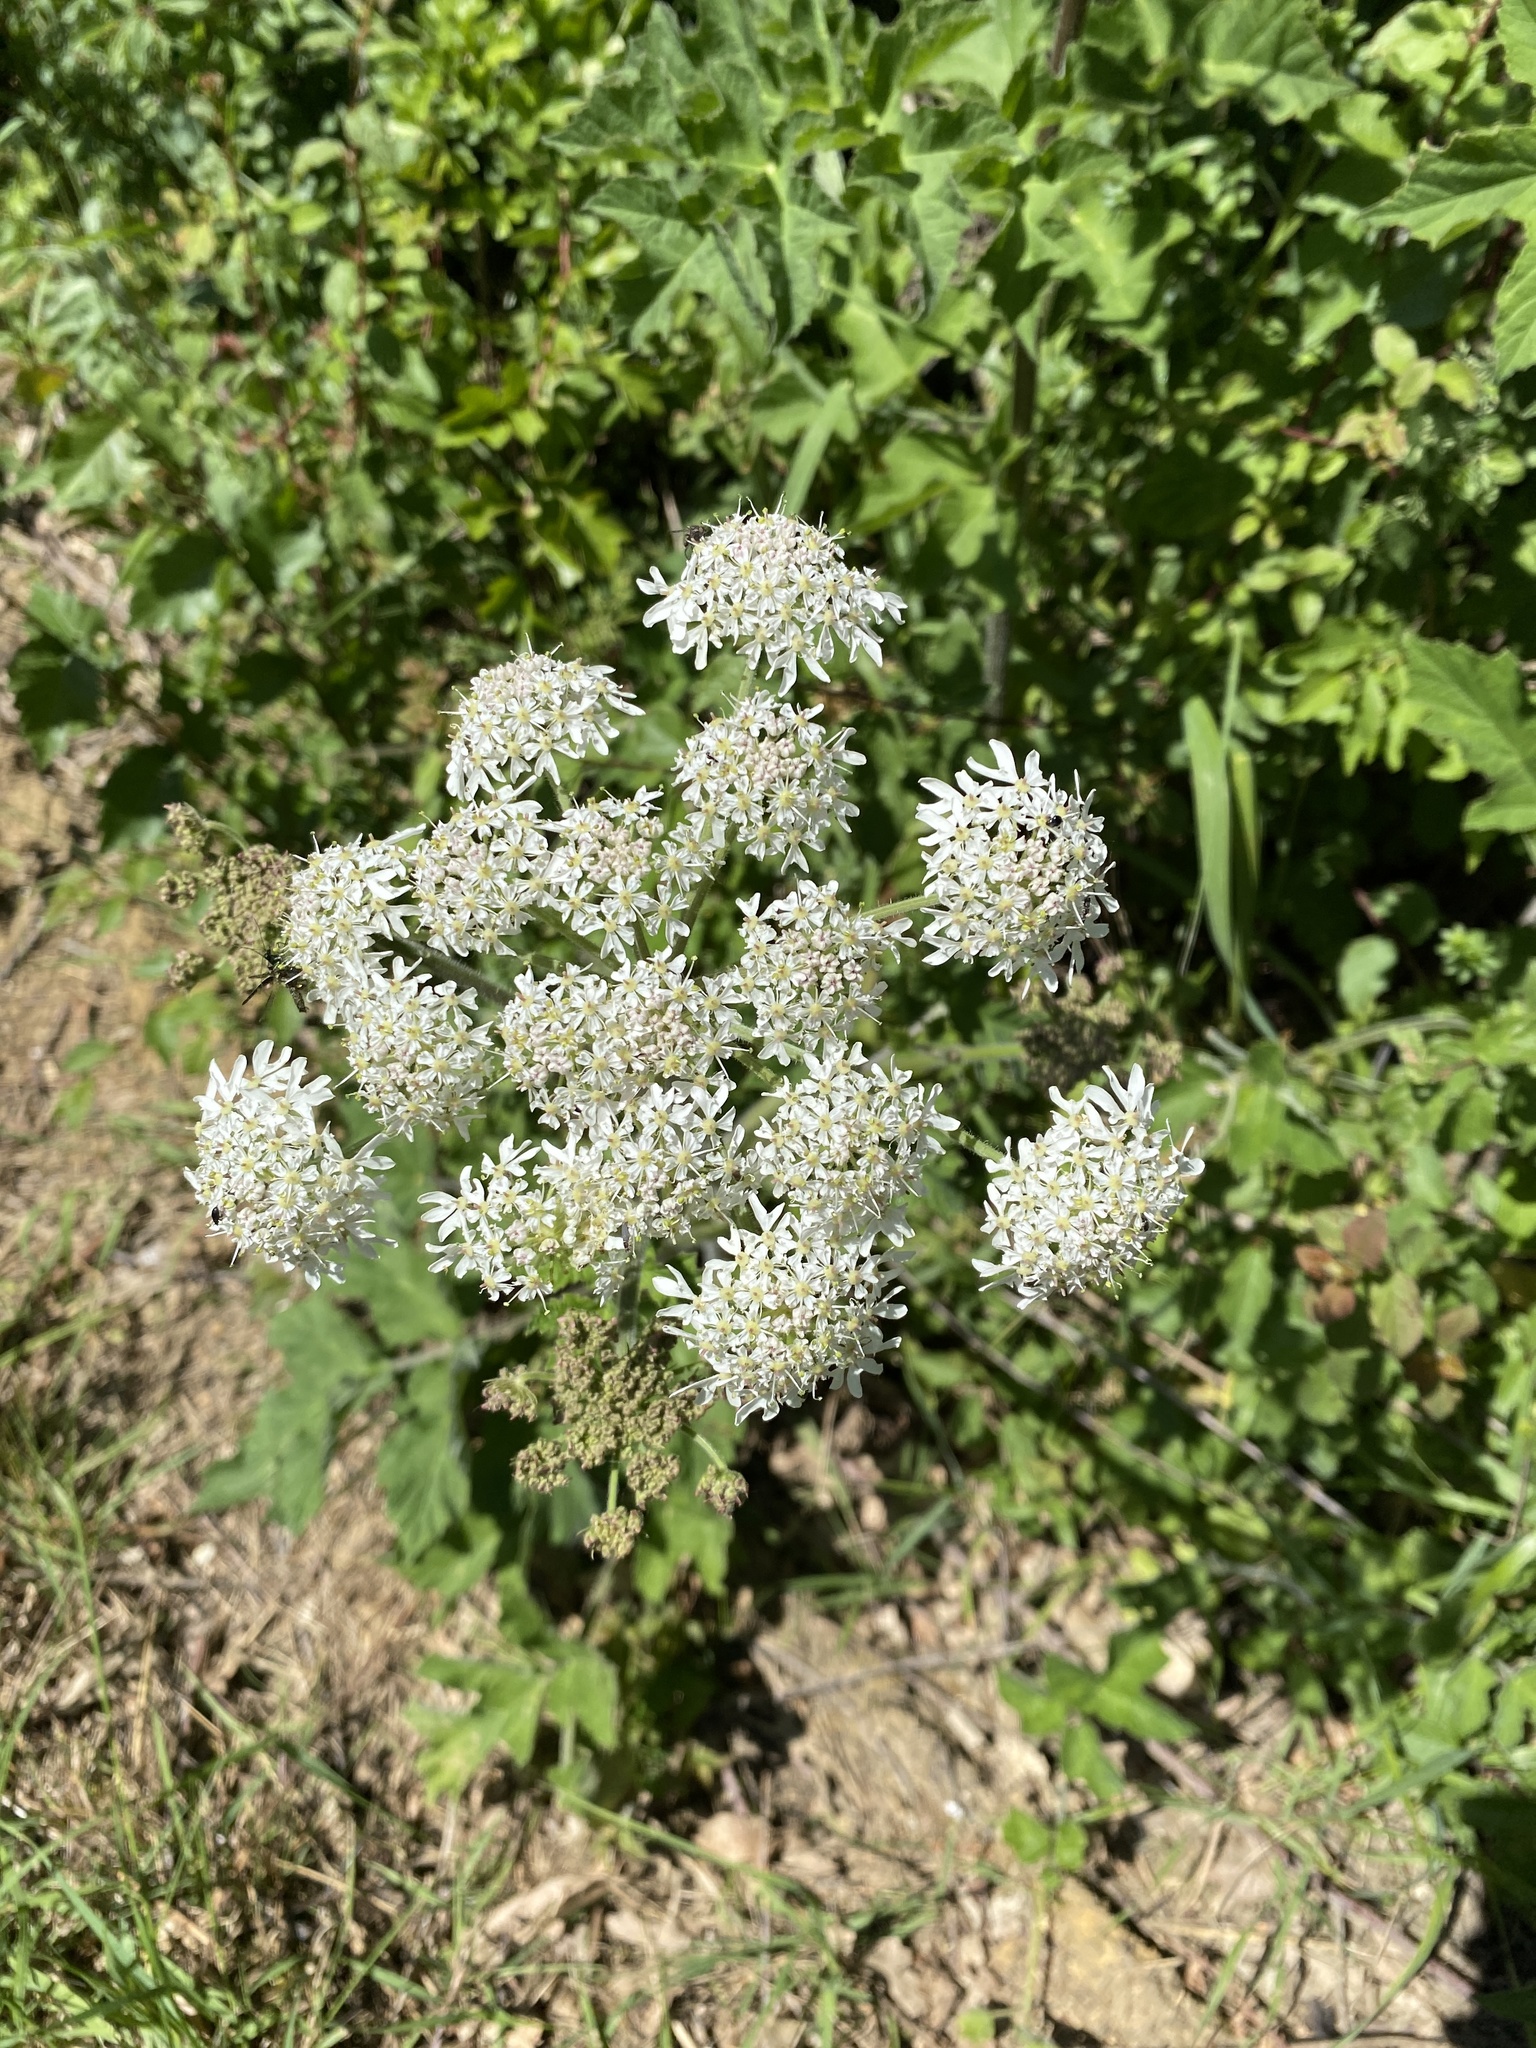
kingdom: Plantae
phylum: Tracheophyta
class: Magnoliopsida
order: Apiales
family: Apiaceae
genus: Heracleum
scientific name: Heracleum sphondylium
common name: Hogweed
